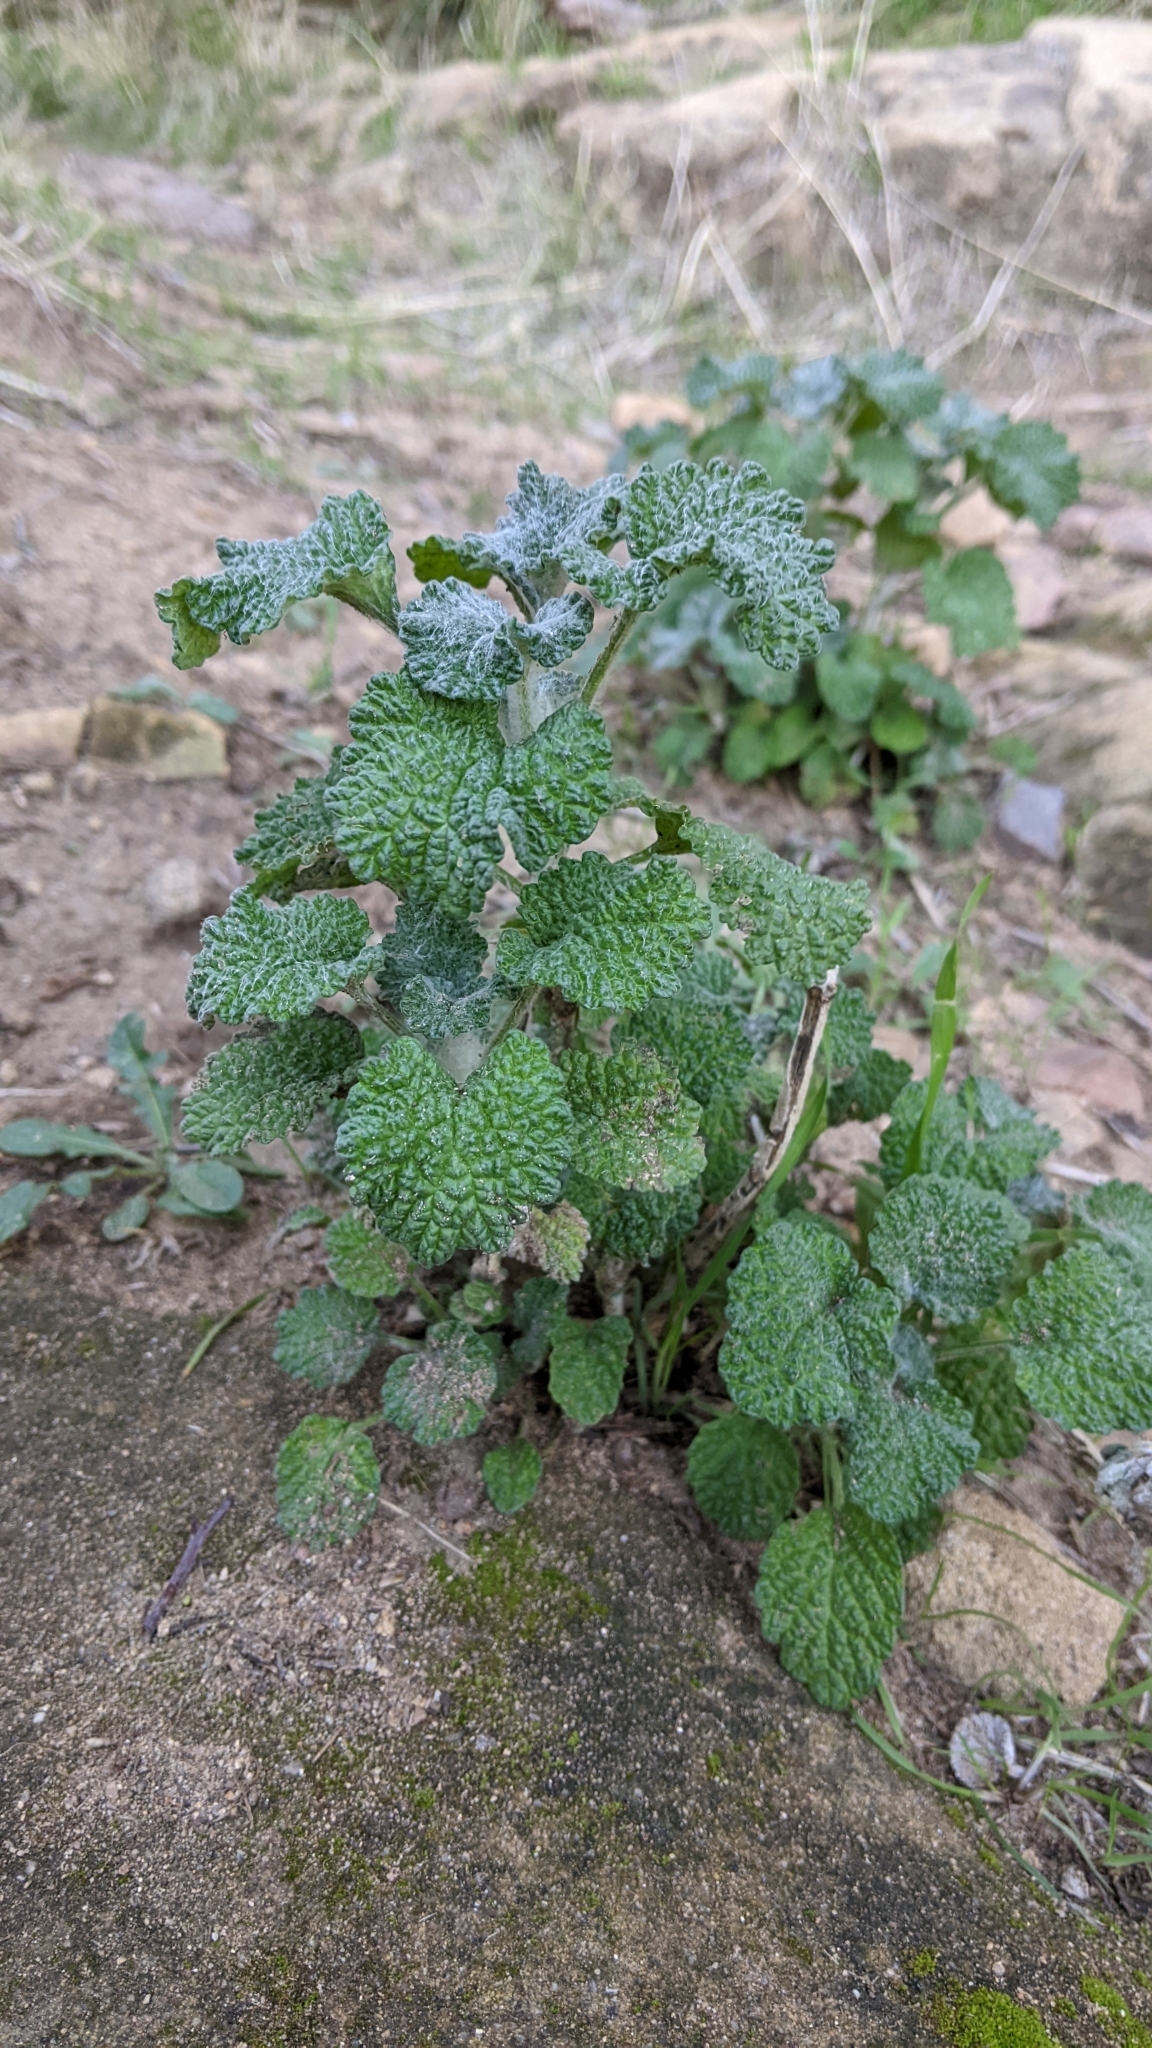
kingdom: Plantae
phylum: Tracheophyta
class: Magnoliopsida
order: Lamiales
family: Lamiaceae
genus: Marrubium
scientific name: Marrubium vulgare
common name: Horehound
